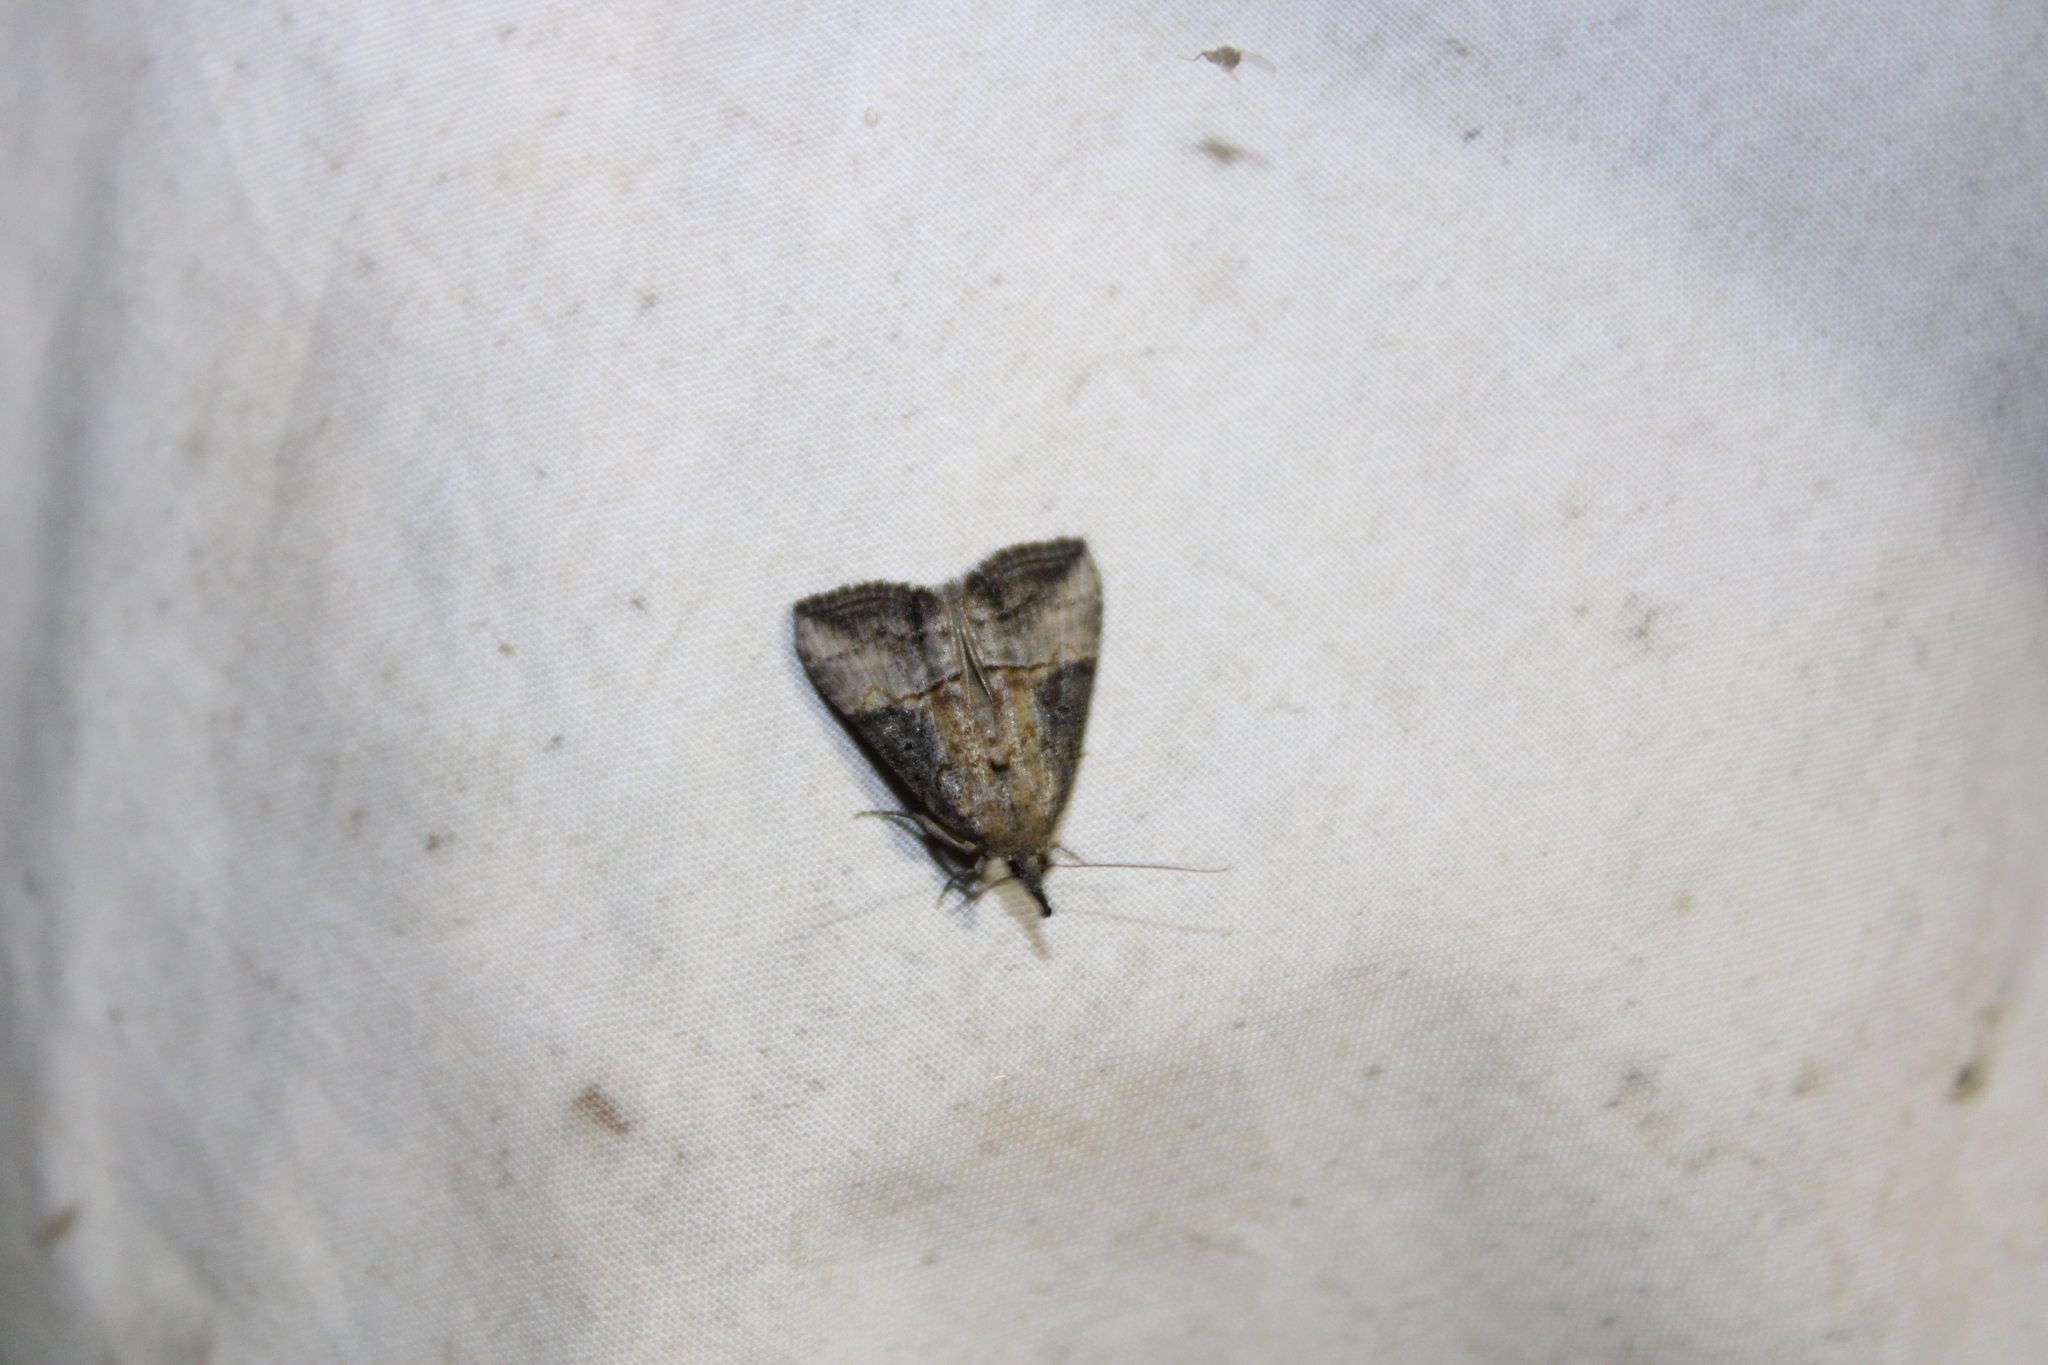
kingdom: Animalia
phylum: Arthropoda
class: Insecta
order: Lepidoptera
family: Erebidae
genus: Hypena
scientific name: Hypena scabra
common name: Green cloverworm
